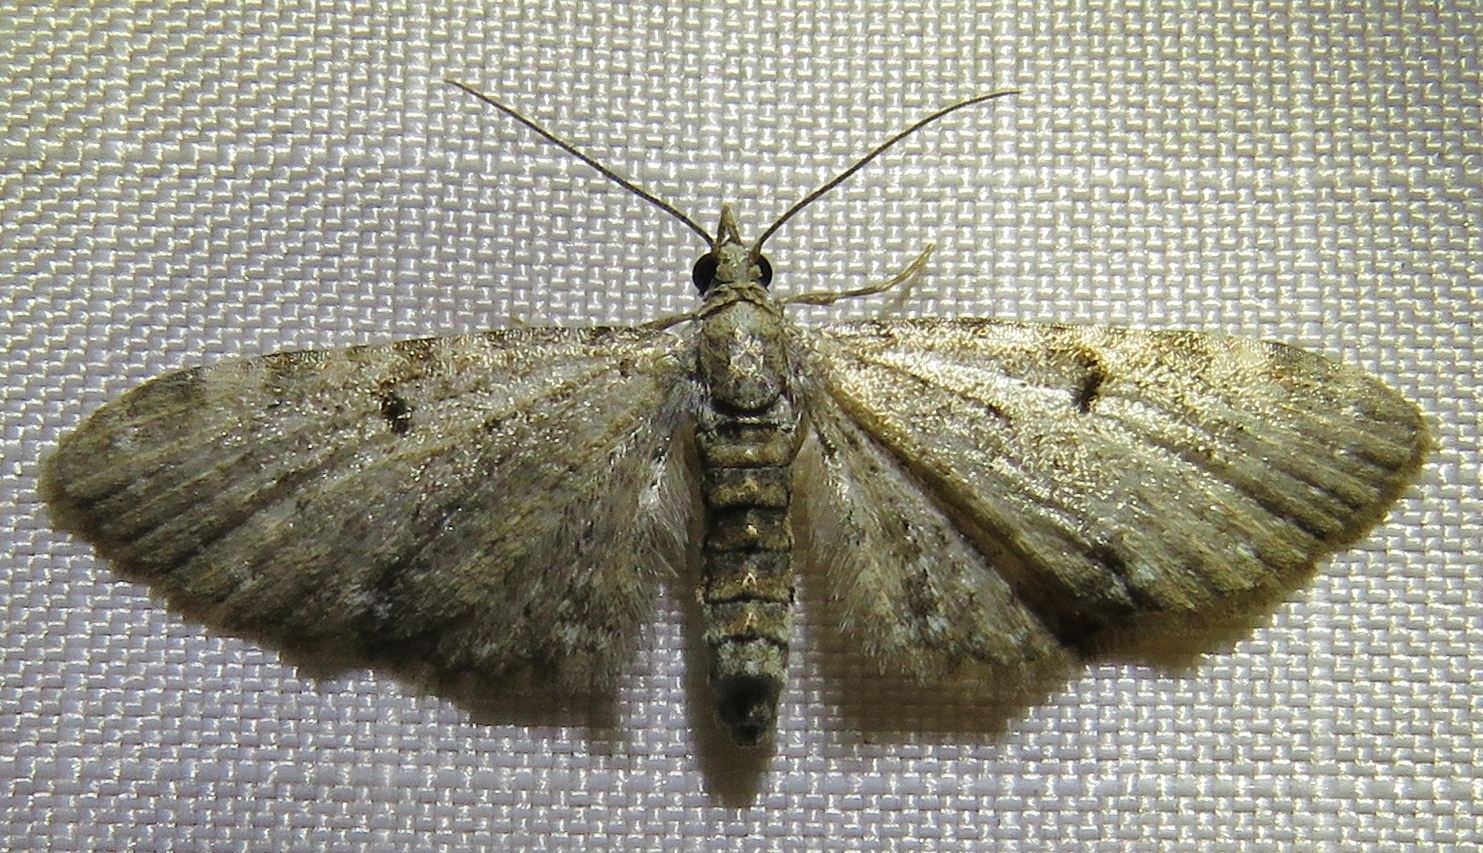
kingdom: Animalia
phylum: Arthropoda
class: Insecta
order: Lepidoptera
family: Geometridae
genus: Eupithecia
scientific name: Eupithecia miserulata
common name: Common eupithecia
